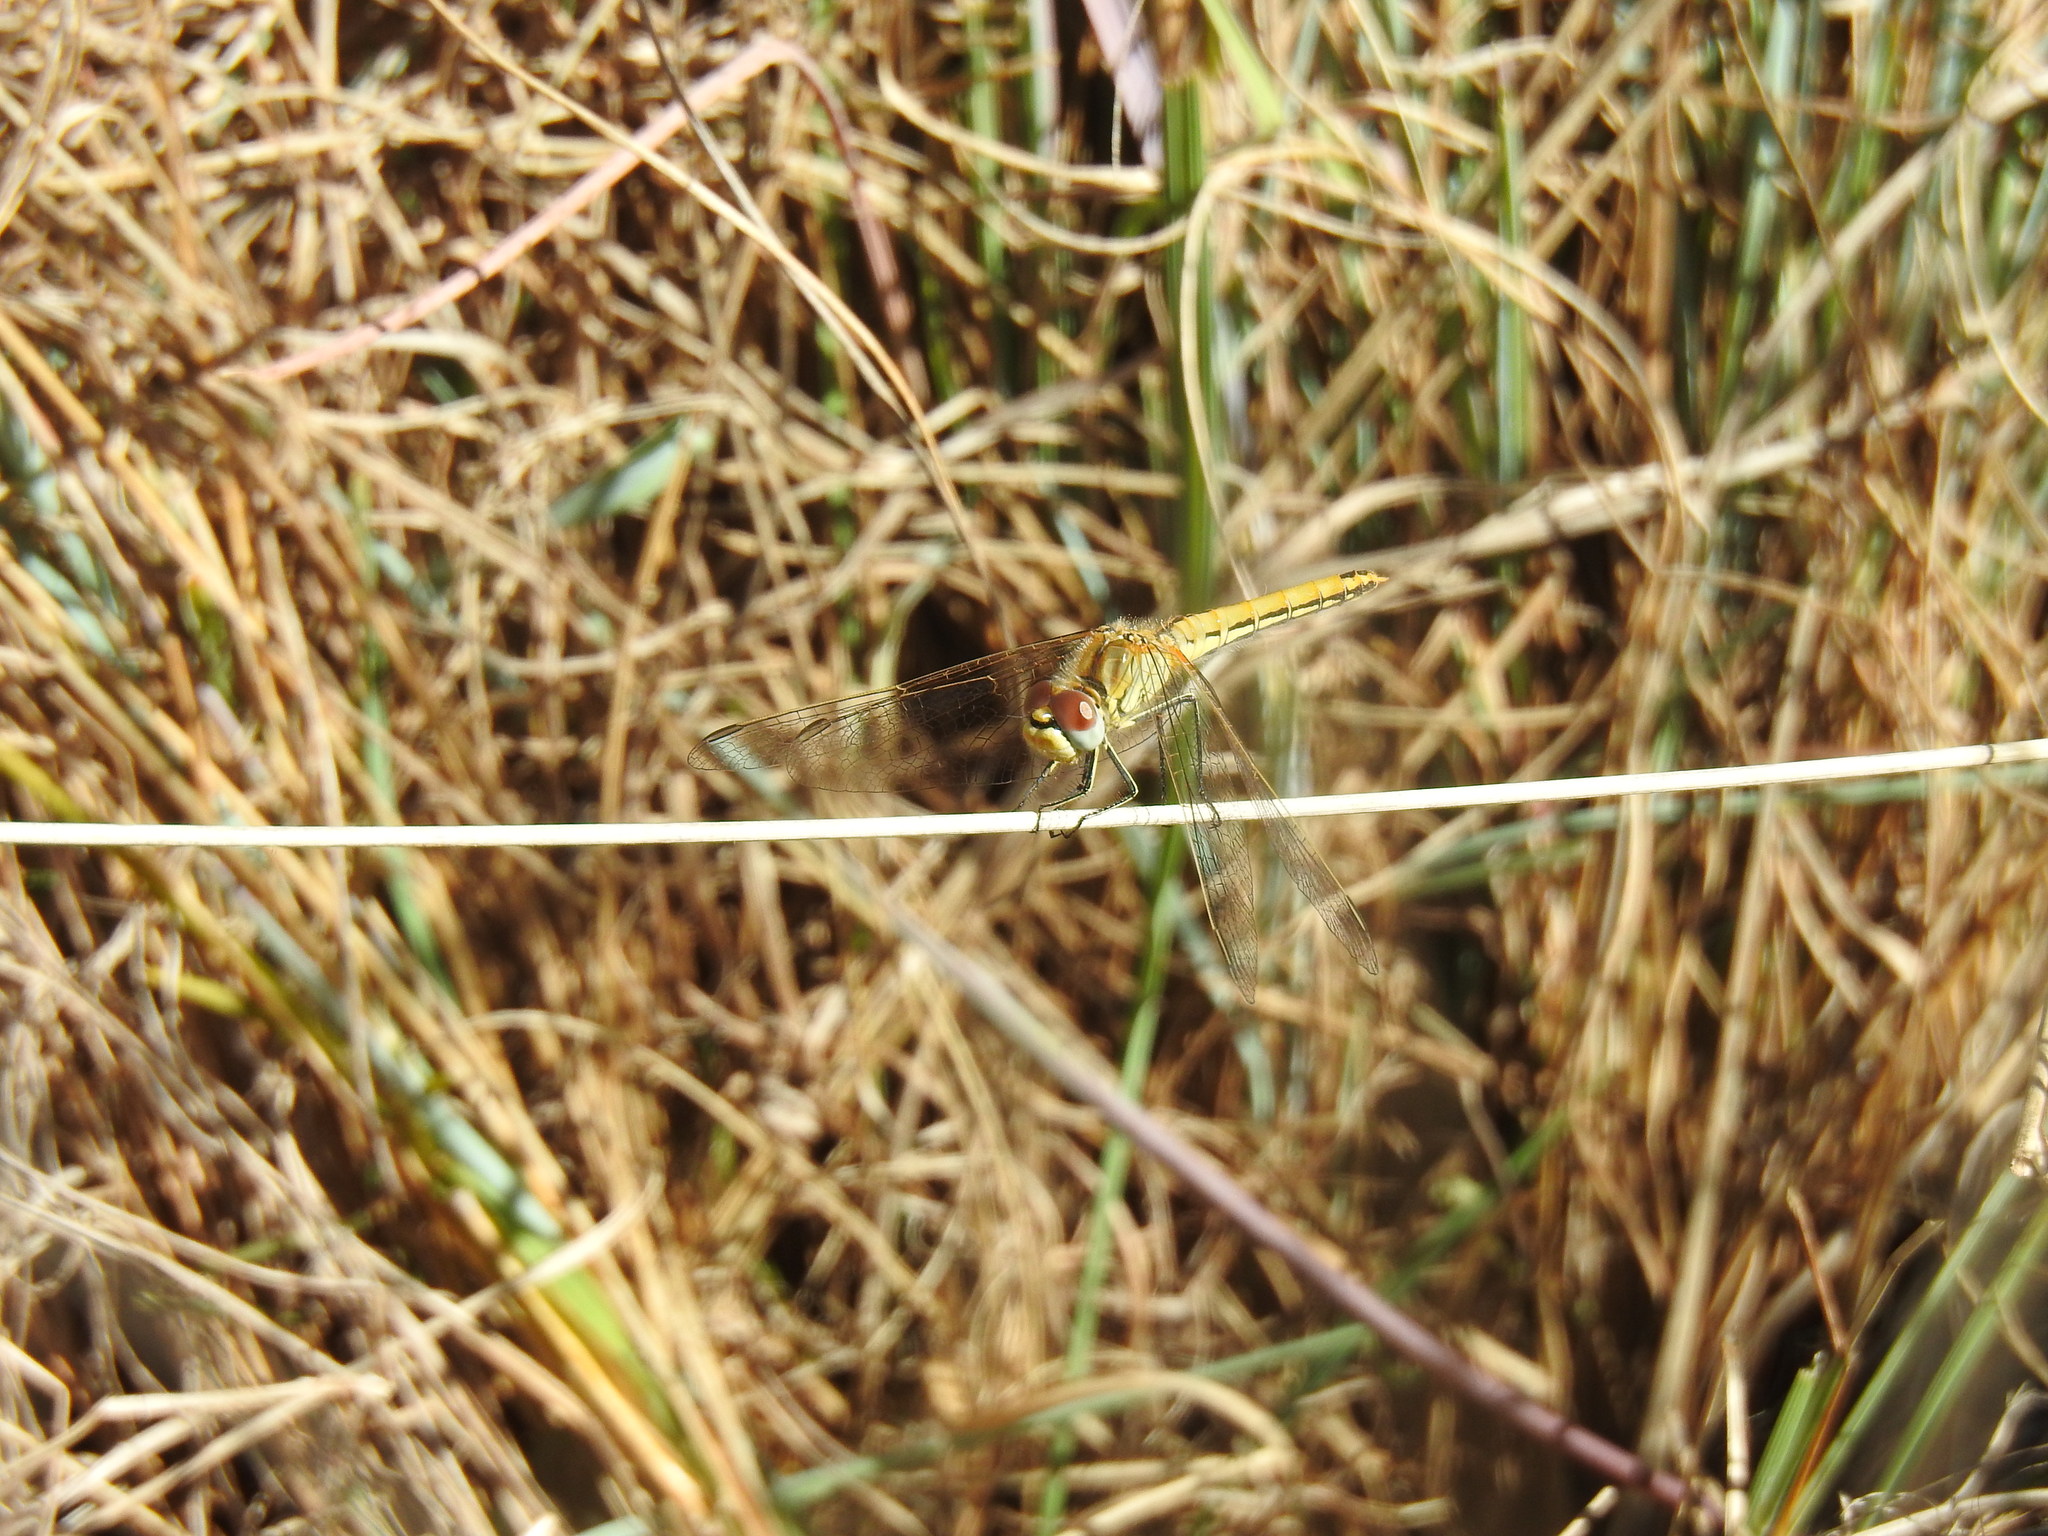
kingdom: Animalia
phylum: Arthropoda
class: Insecta
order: Odonata
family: Libellulidae
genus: Sympetrum
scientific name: Sympetrum fonscolombii
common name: Red-veined darter
